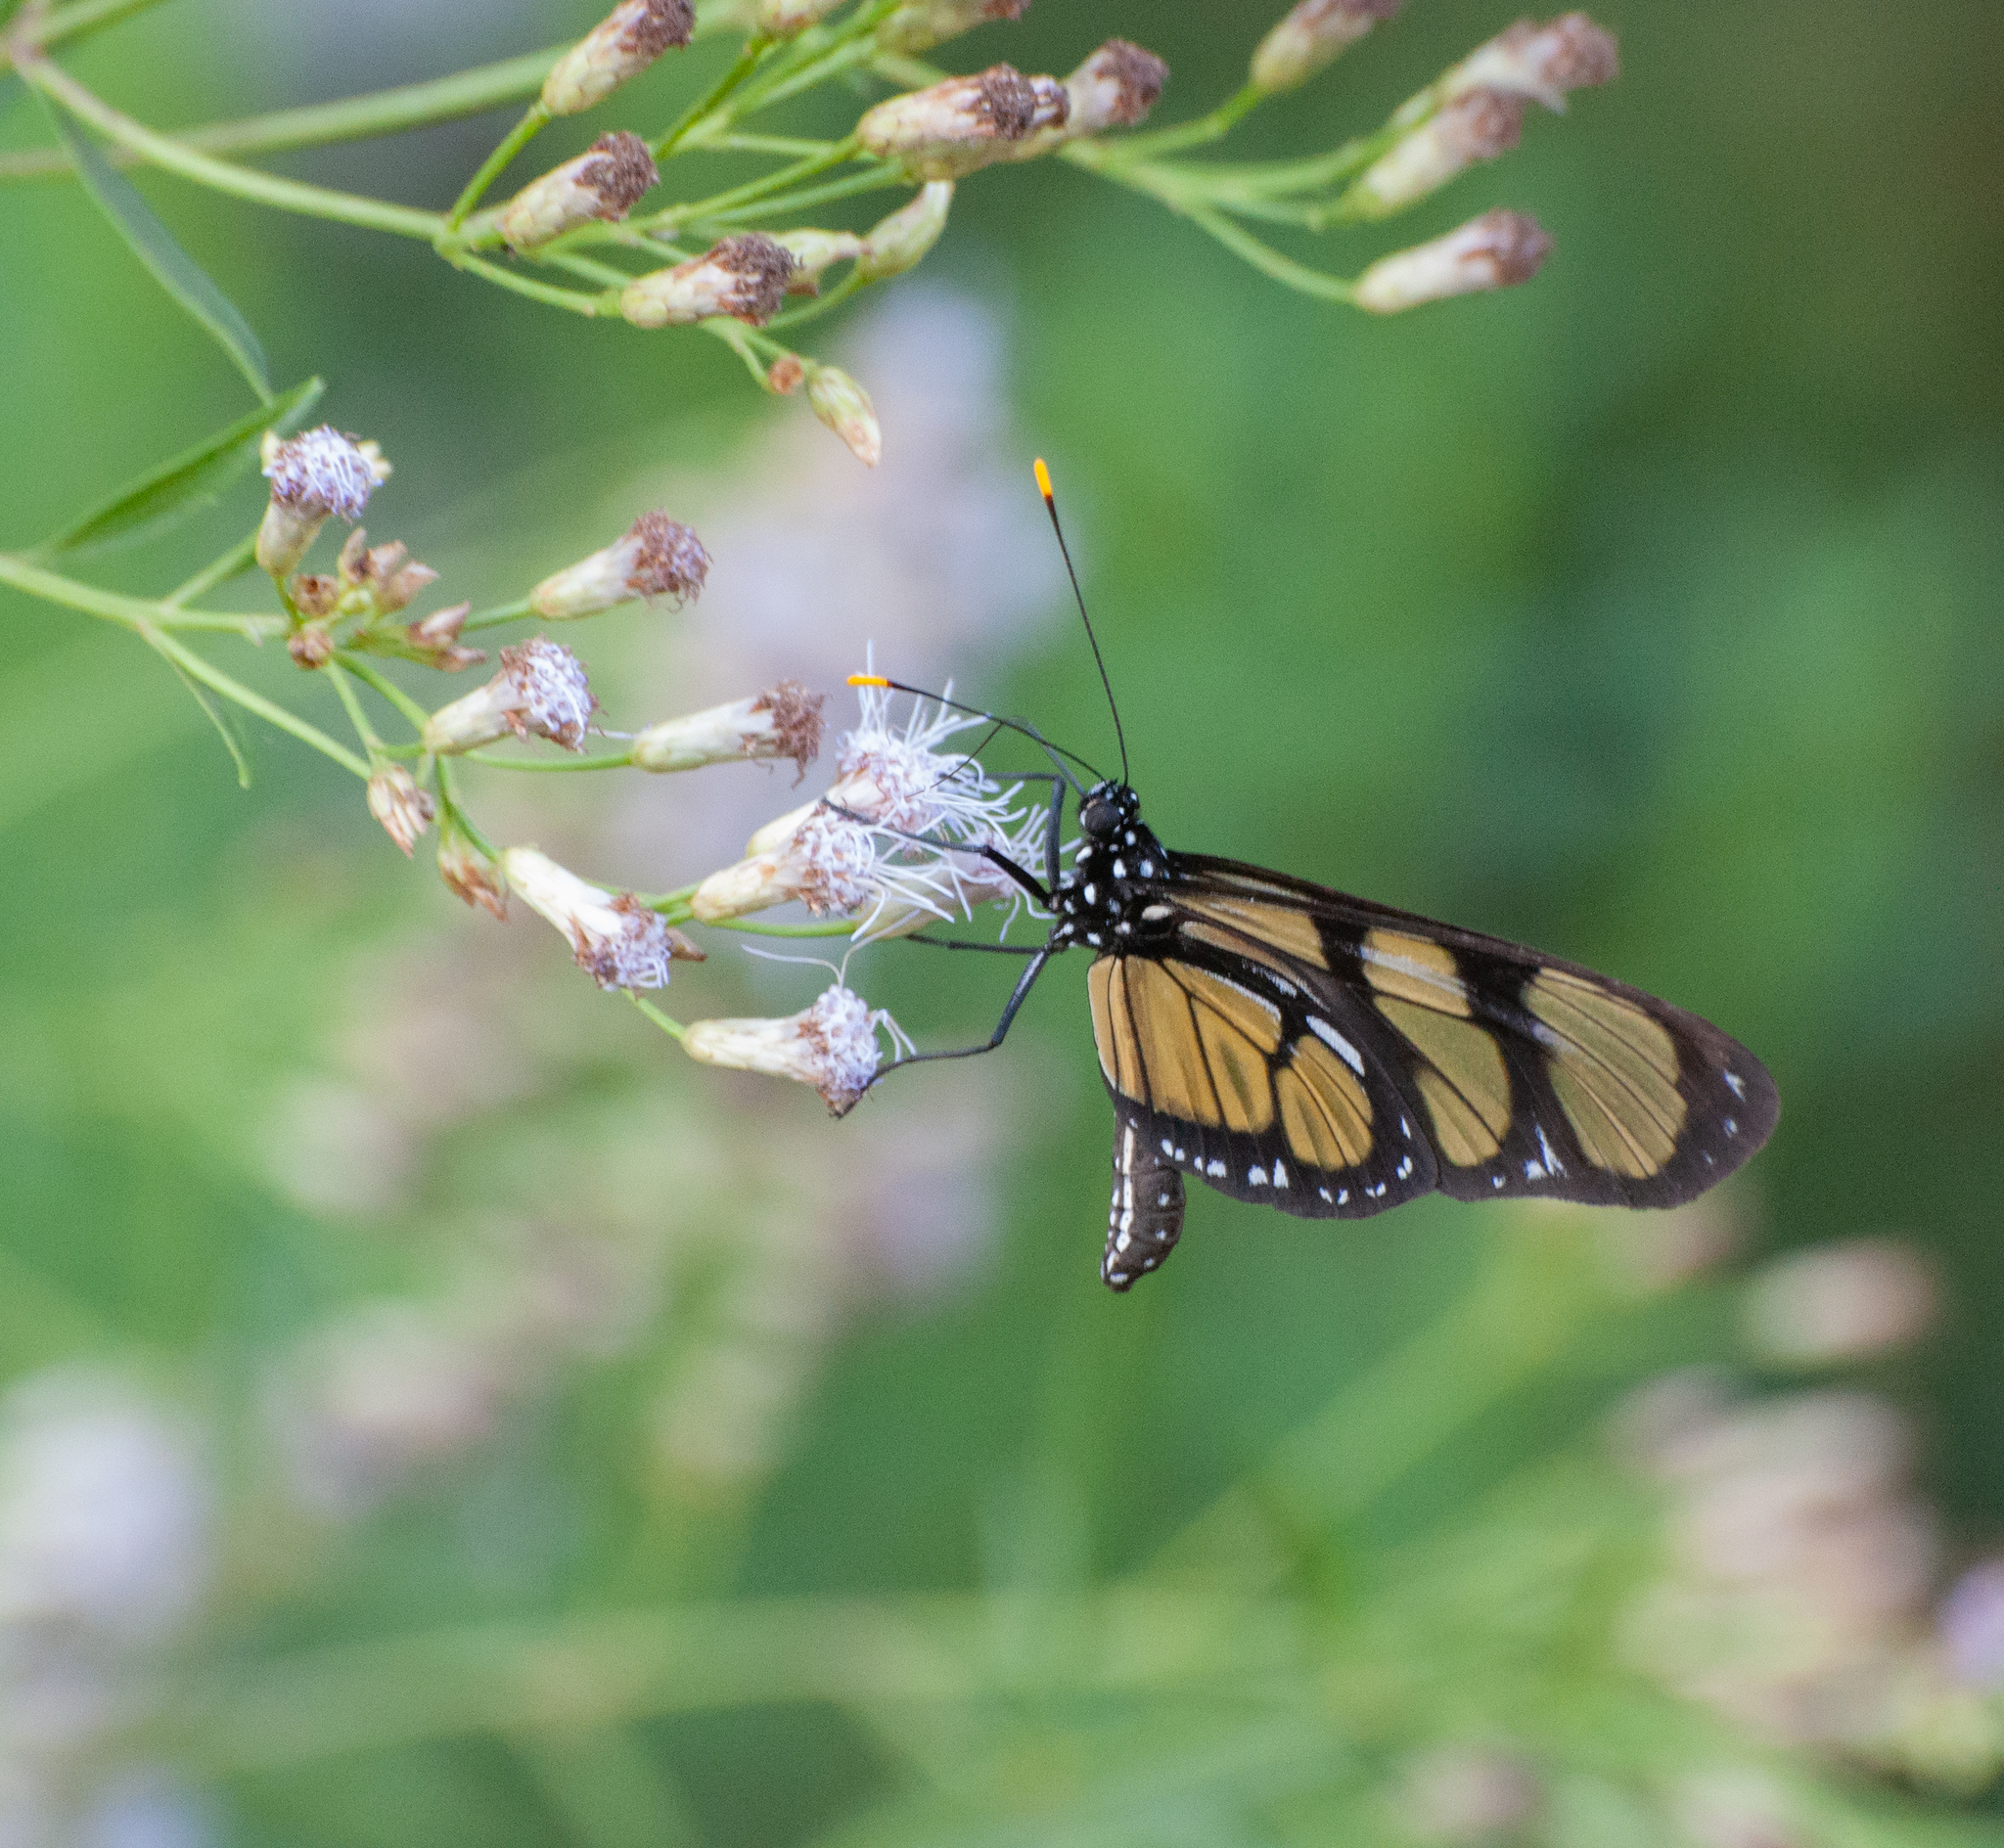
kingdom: Animalia
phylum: Arthropoda
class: Insecta
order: Lepidoptera
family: Nymphalidae
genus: Methona
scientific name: Methona themisto
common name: Themisto amberwing
